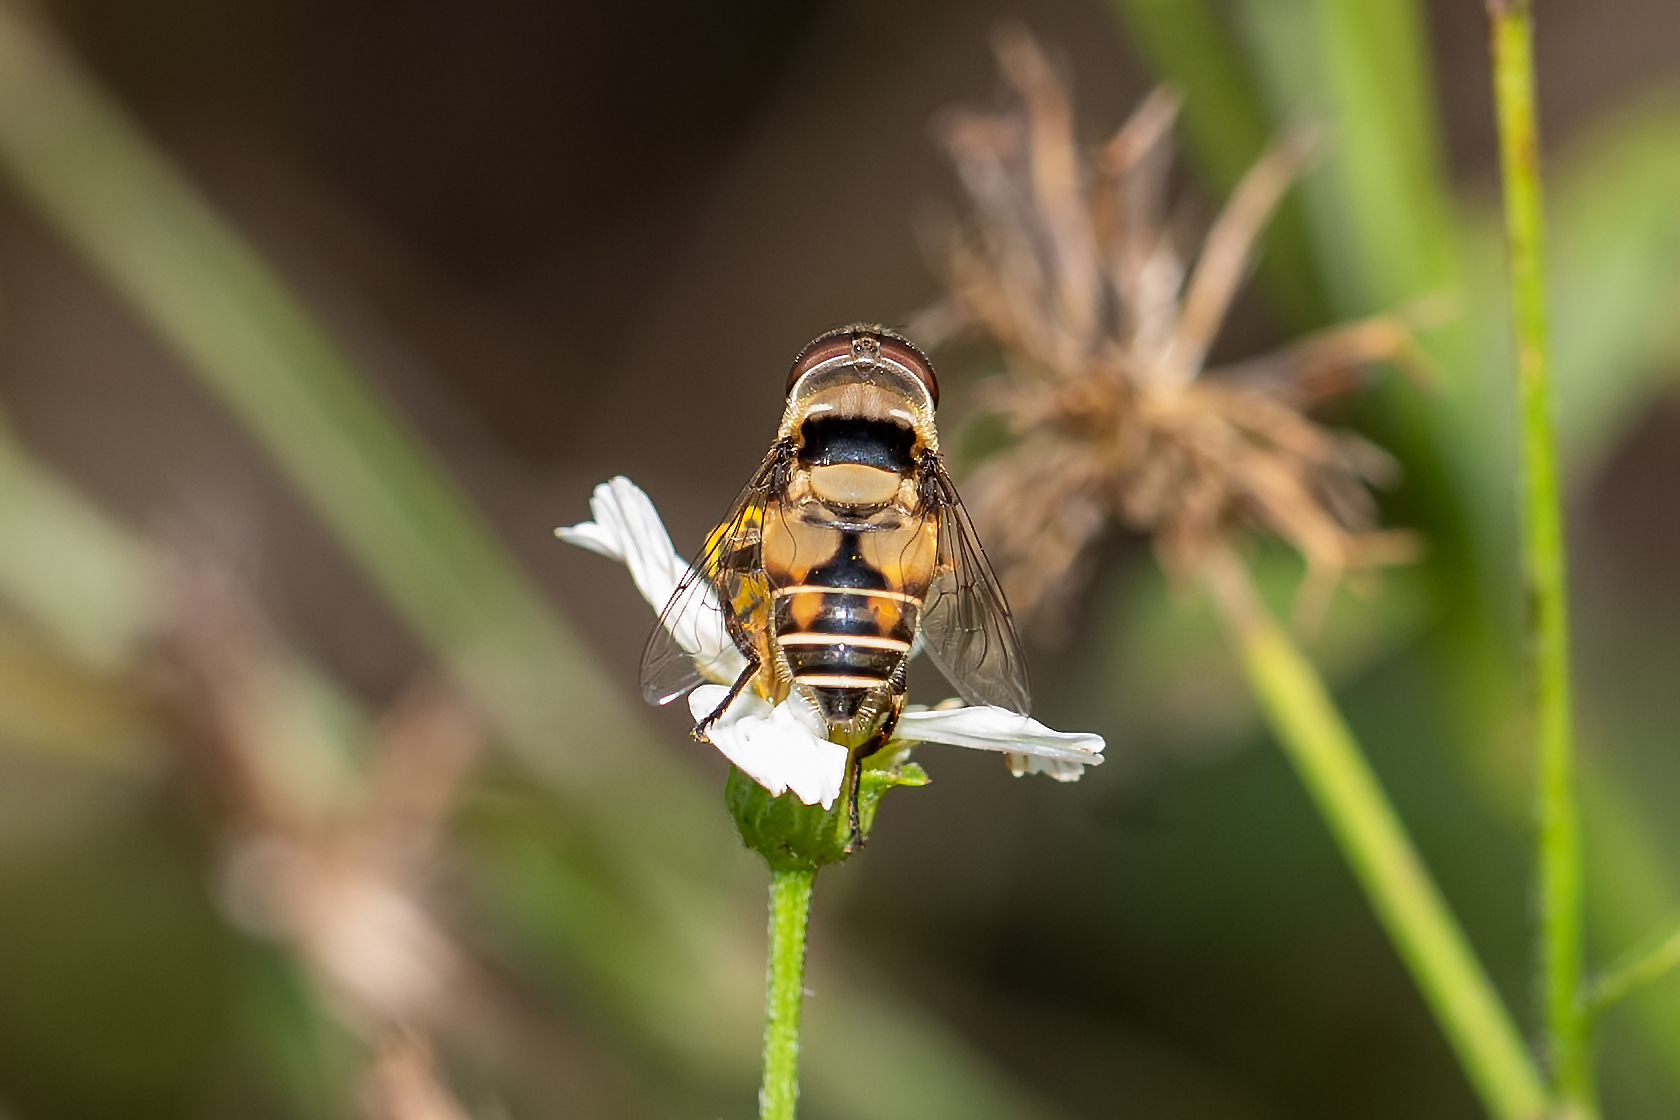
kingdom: Animalia
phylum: Arthropoda
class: Insecta
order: Diptera
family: Syrphidae
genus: Palpada
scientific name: Palpada pusilla
